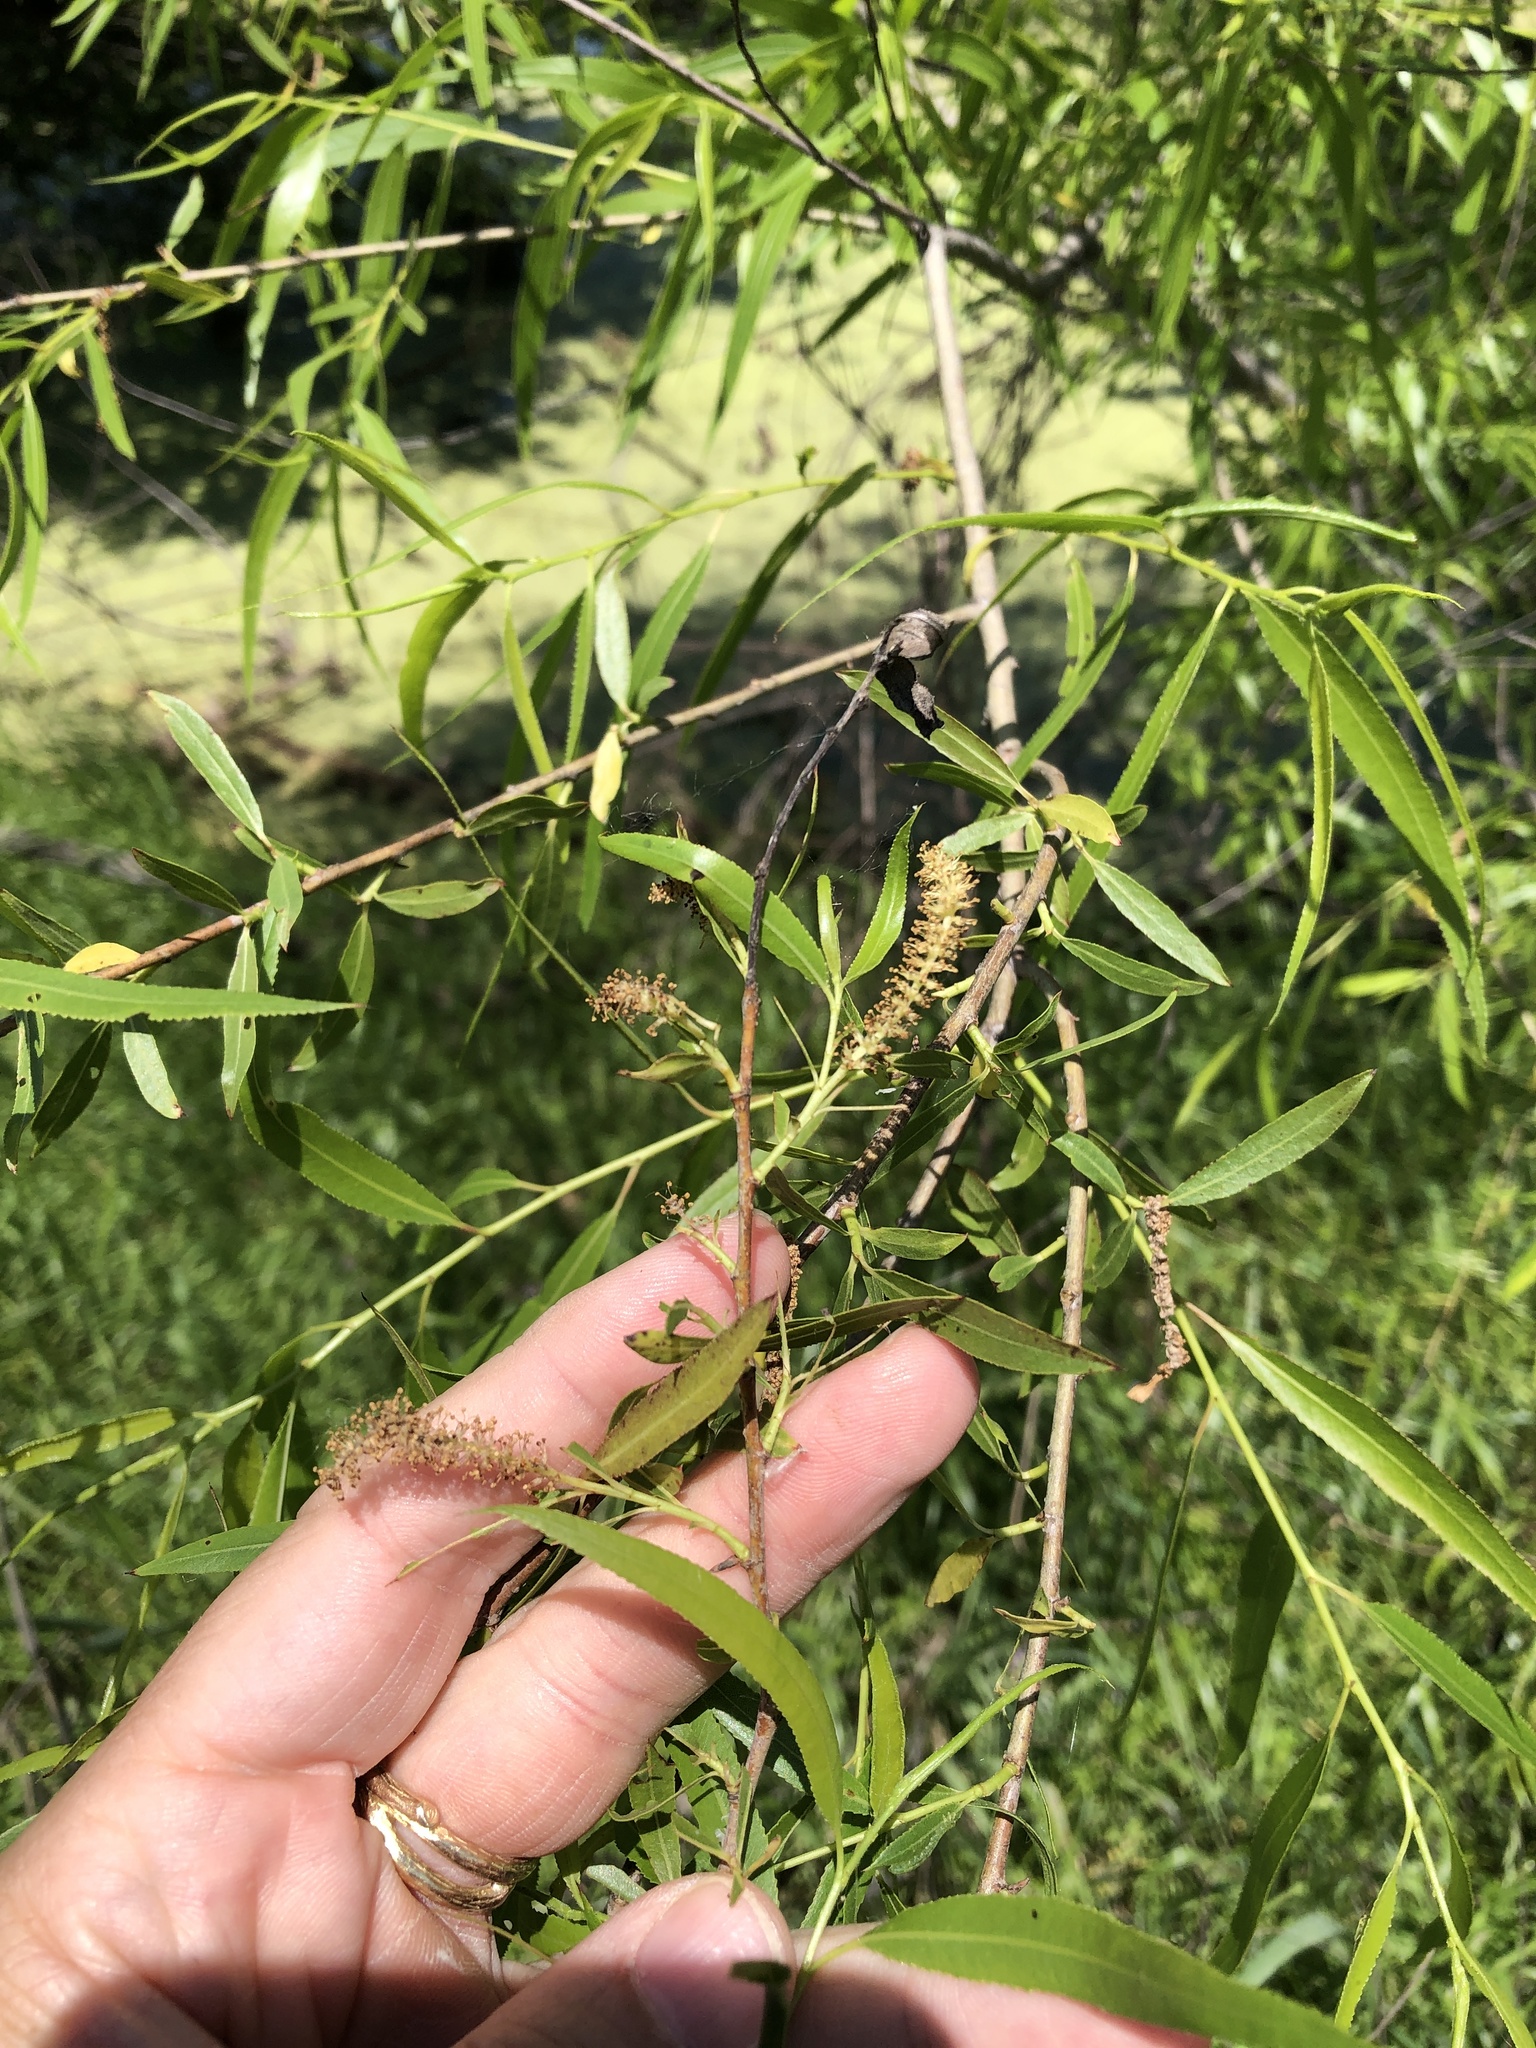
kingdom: Plantae
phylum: Tracheophyta
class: Magnoliopsida
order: Malpighiales
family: Salicaceae
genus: Salix
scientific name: Salix nigra
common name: Black willow
